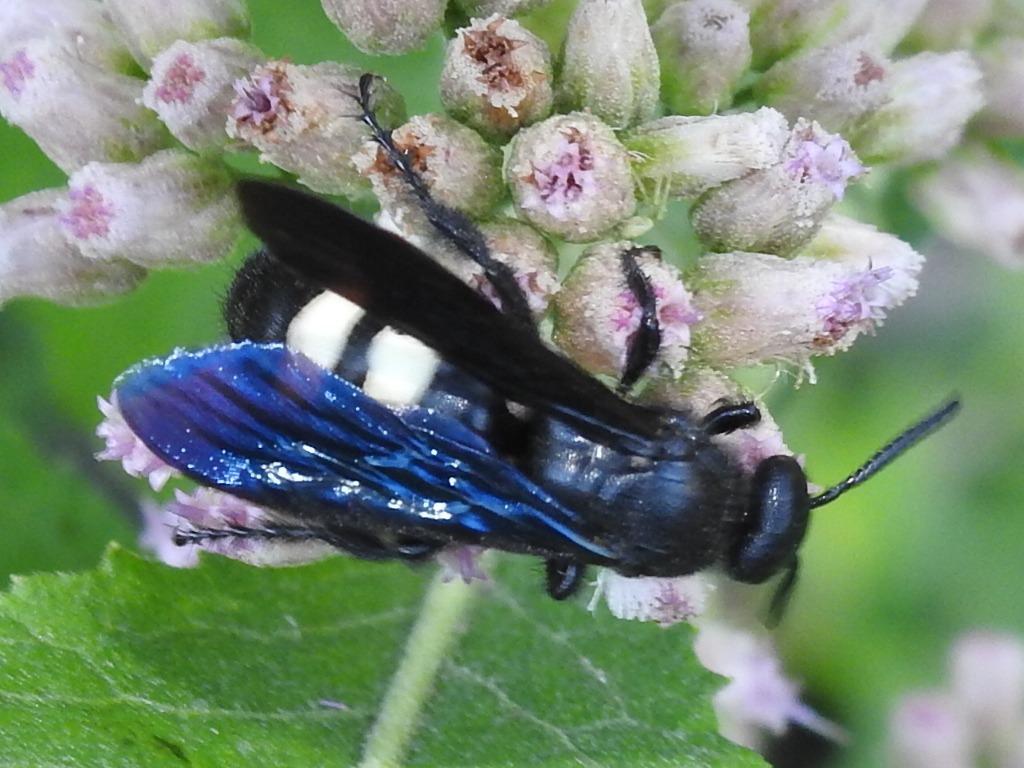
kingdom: Animalia
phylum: Arthropoda
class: Insecta
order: Hymenoptera
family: Scoliidae
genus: Scolia
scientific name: Scolia bicincta
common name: Double-banded scoliid wasp
